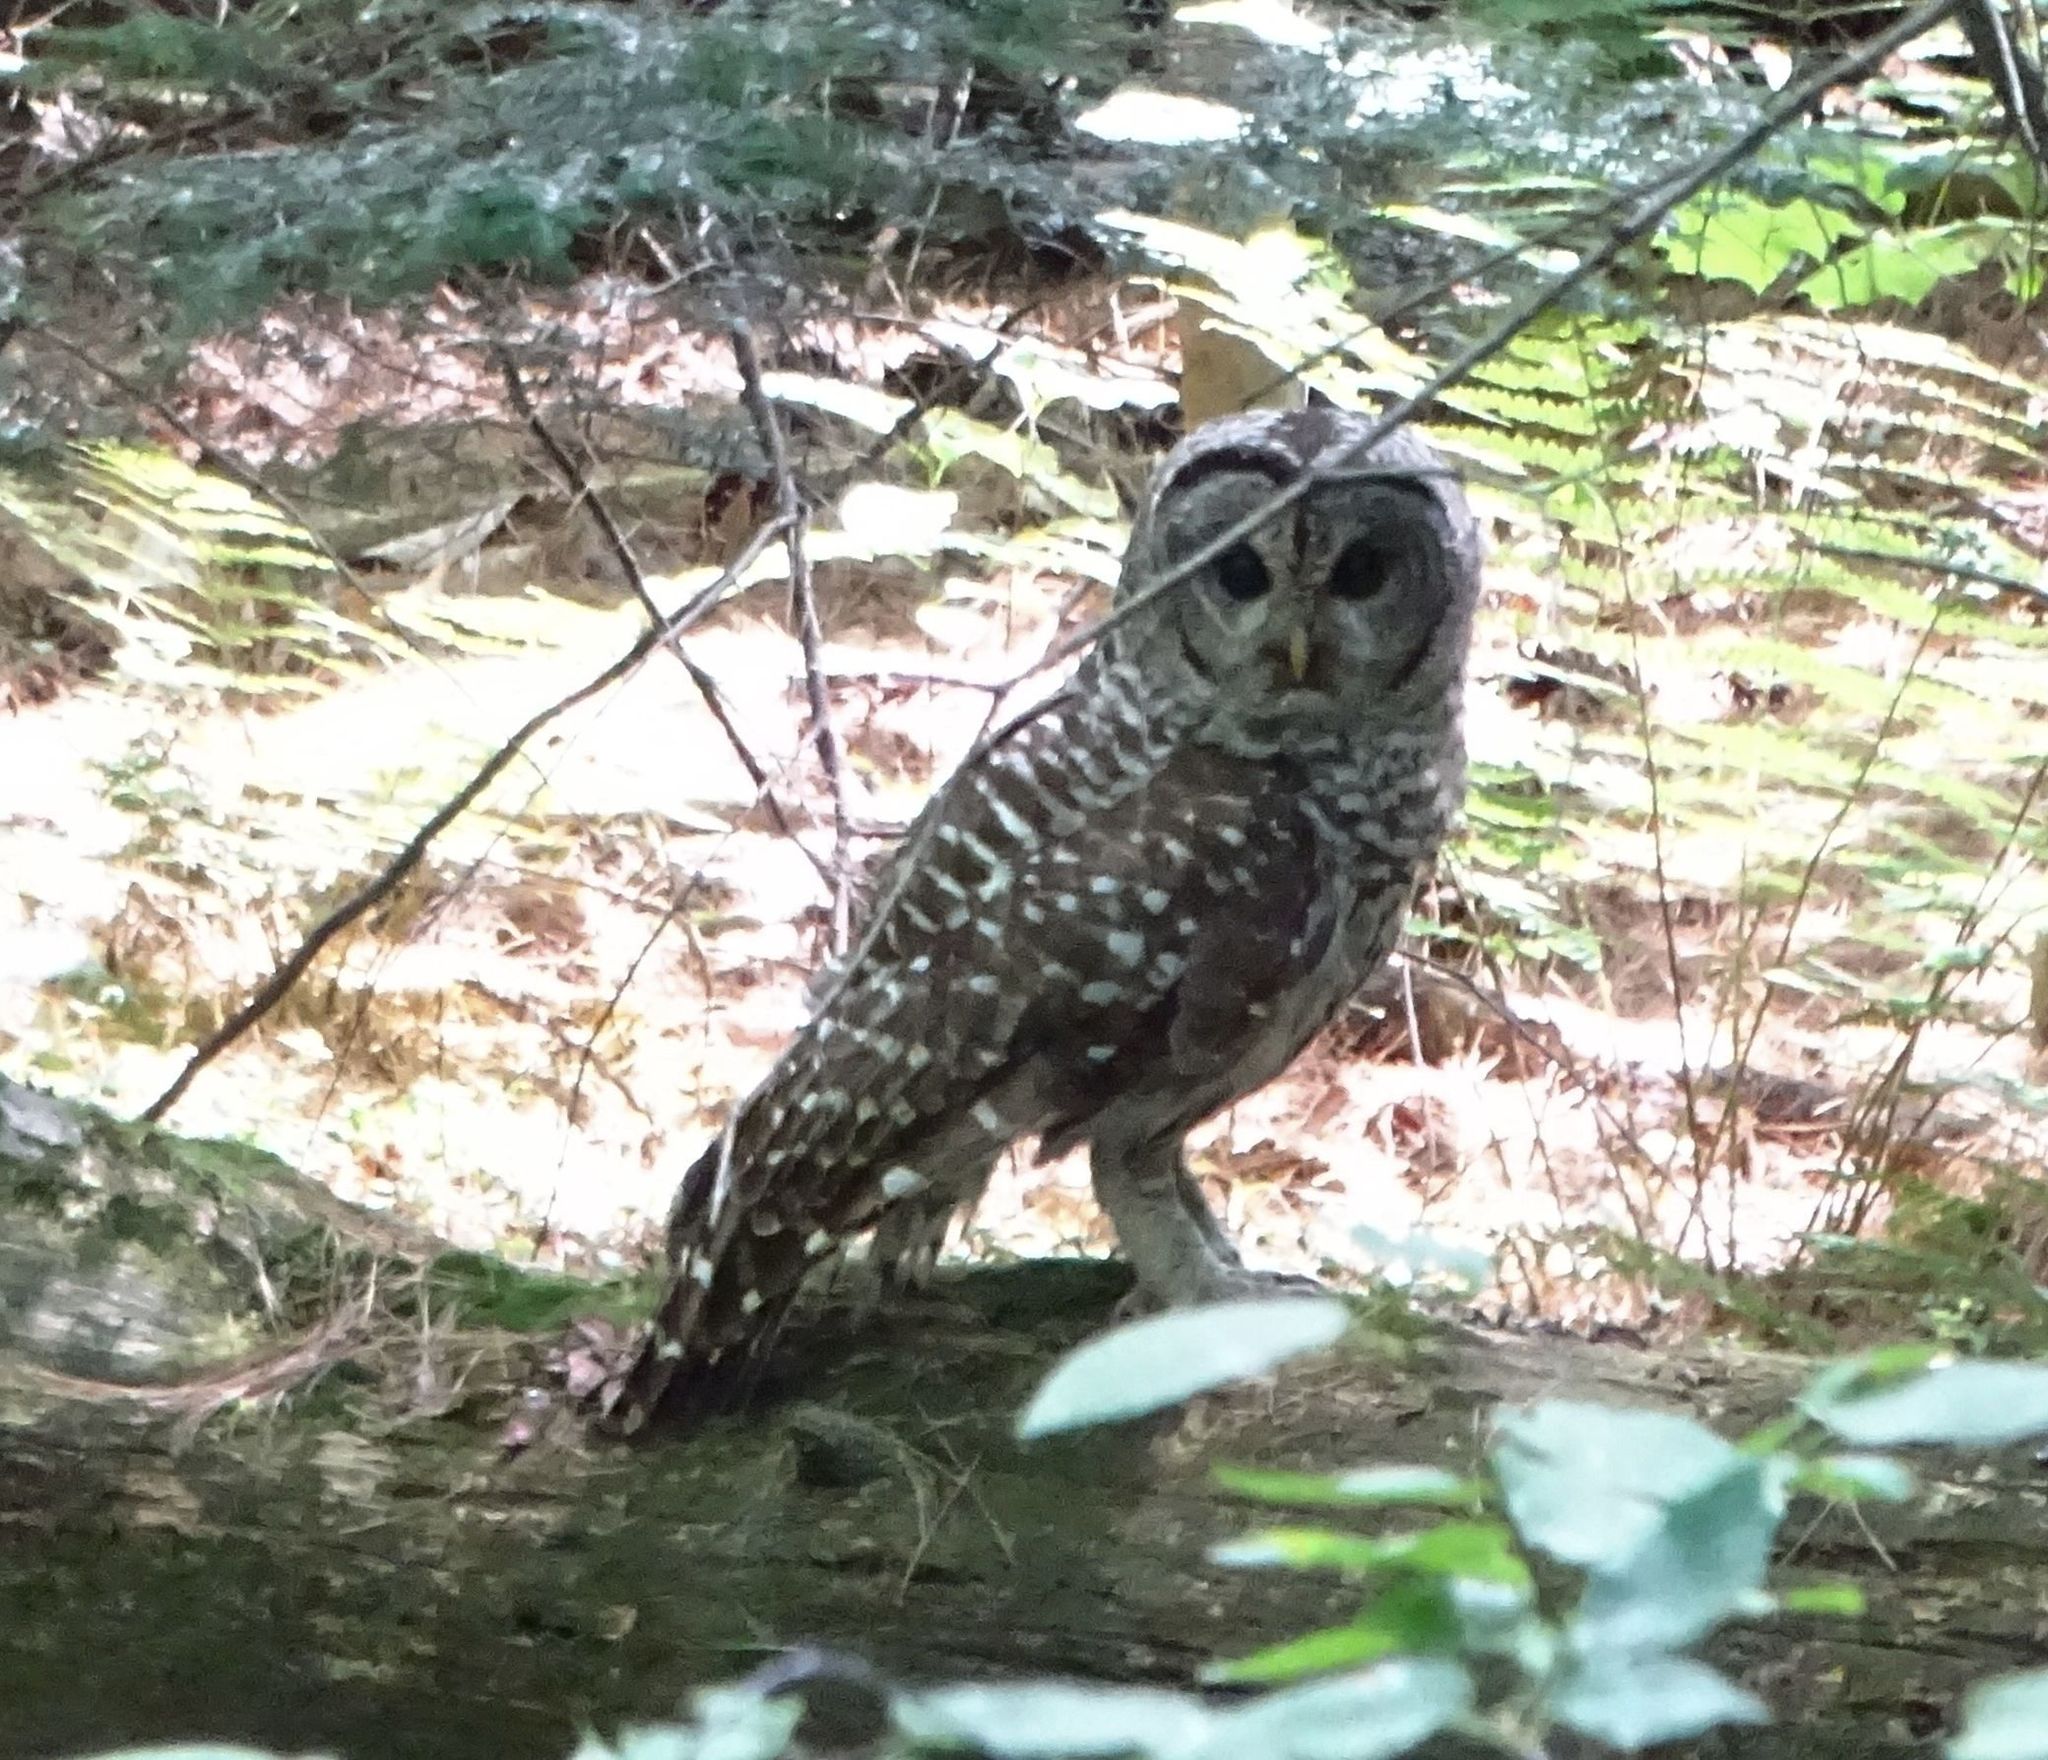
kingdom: Animalia
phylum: Chordata
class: Aves
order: Strigiformes
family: Strigidae
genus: Strix
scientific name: Strix varia
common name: Barred owl
